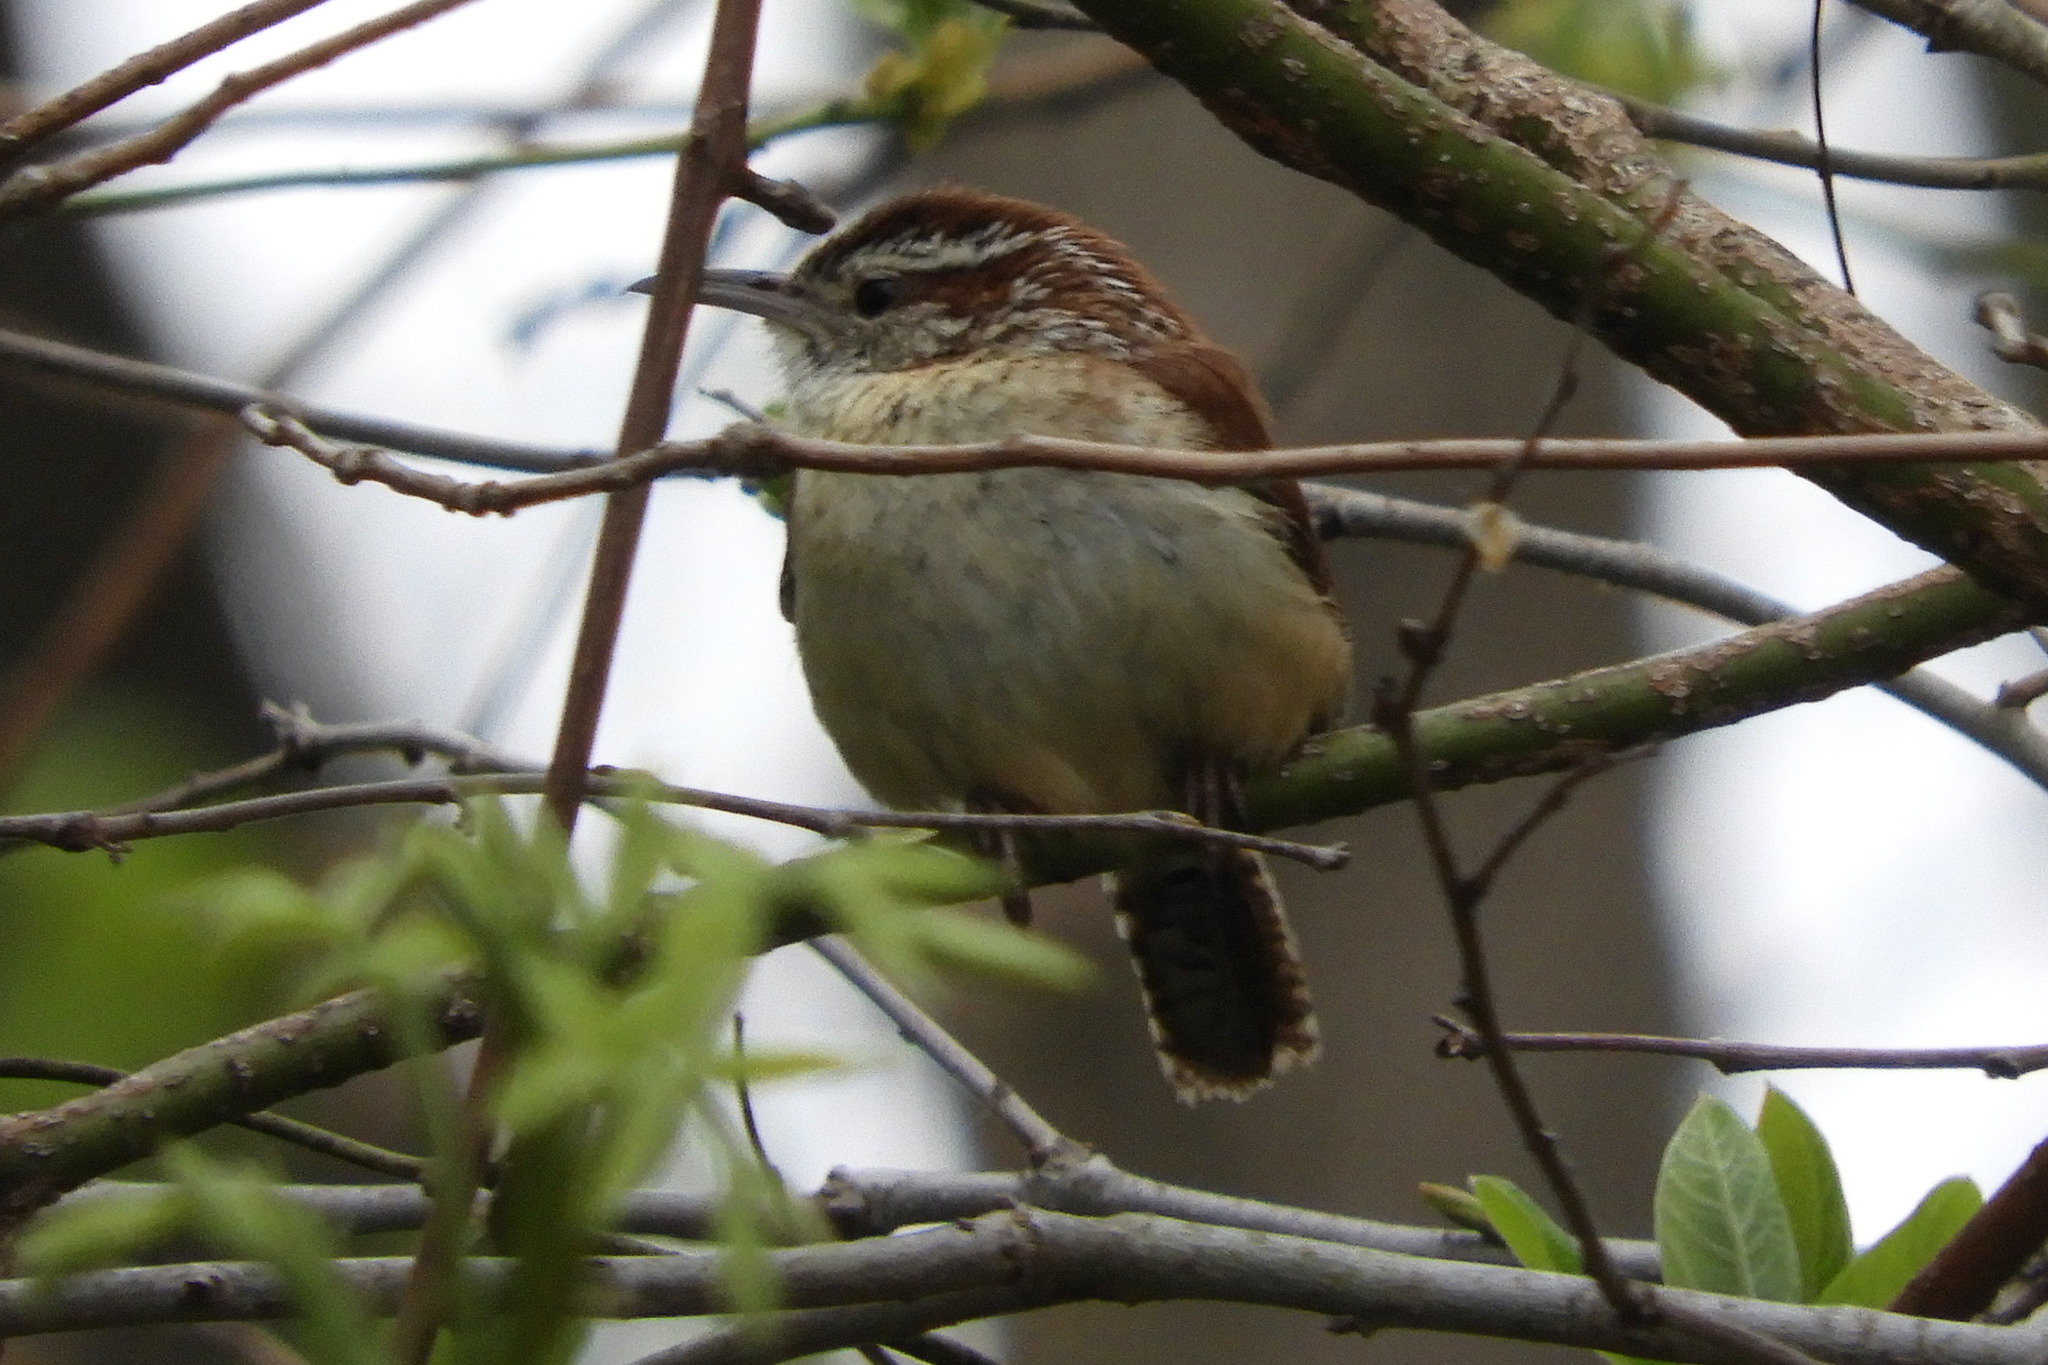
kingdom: Animalia
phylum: Chordata
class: Aves
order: Passeriformes
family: Troglodytidae
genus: Thryothorus
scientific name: Thryothorus ludovicianus
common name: Carolina wren
